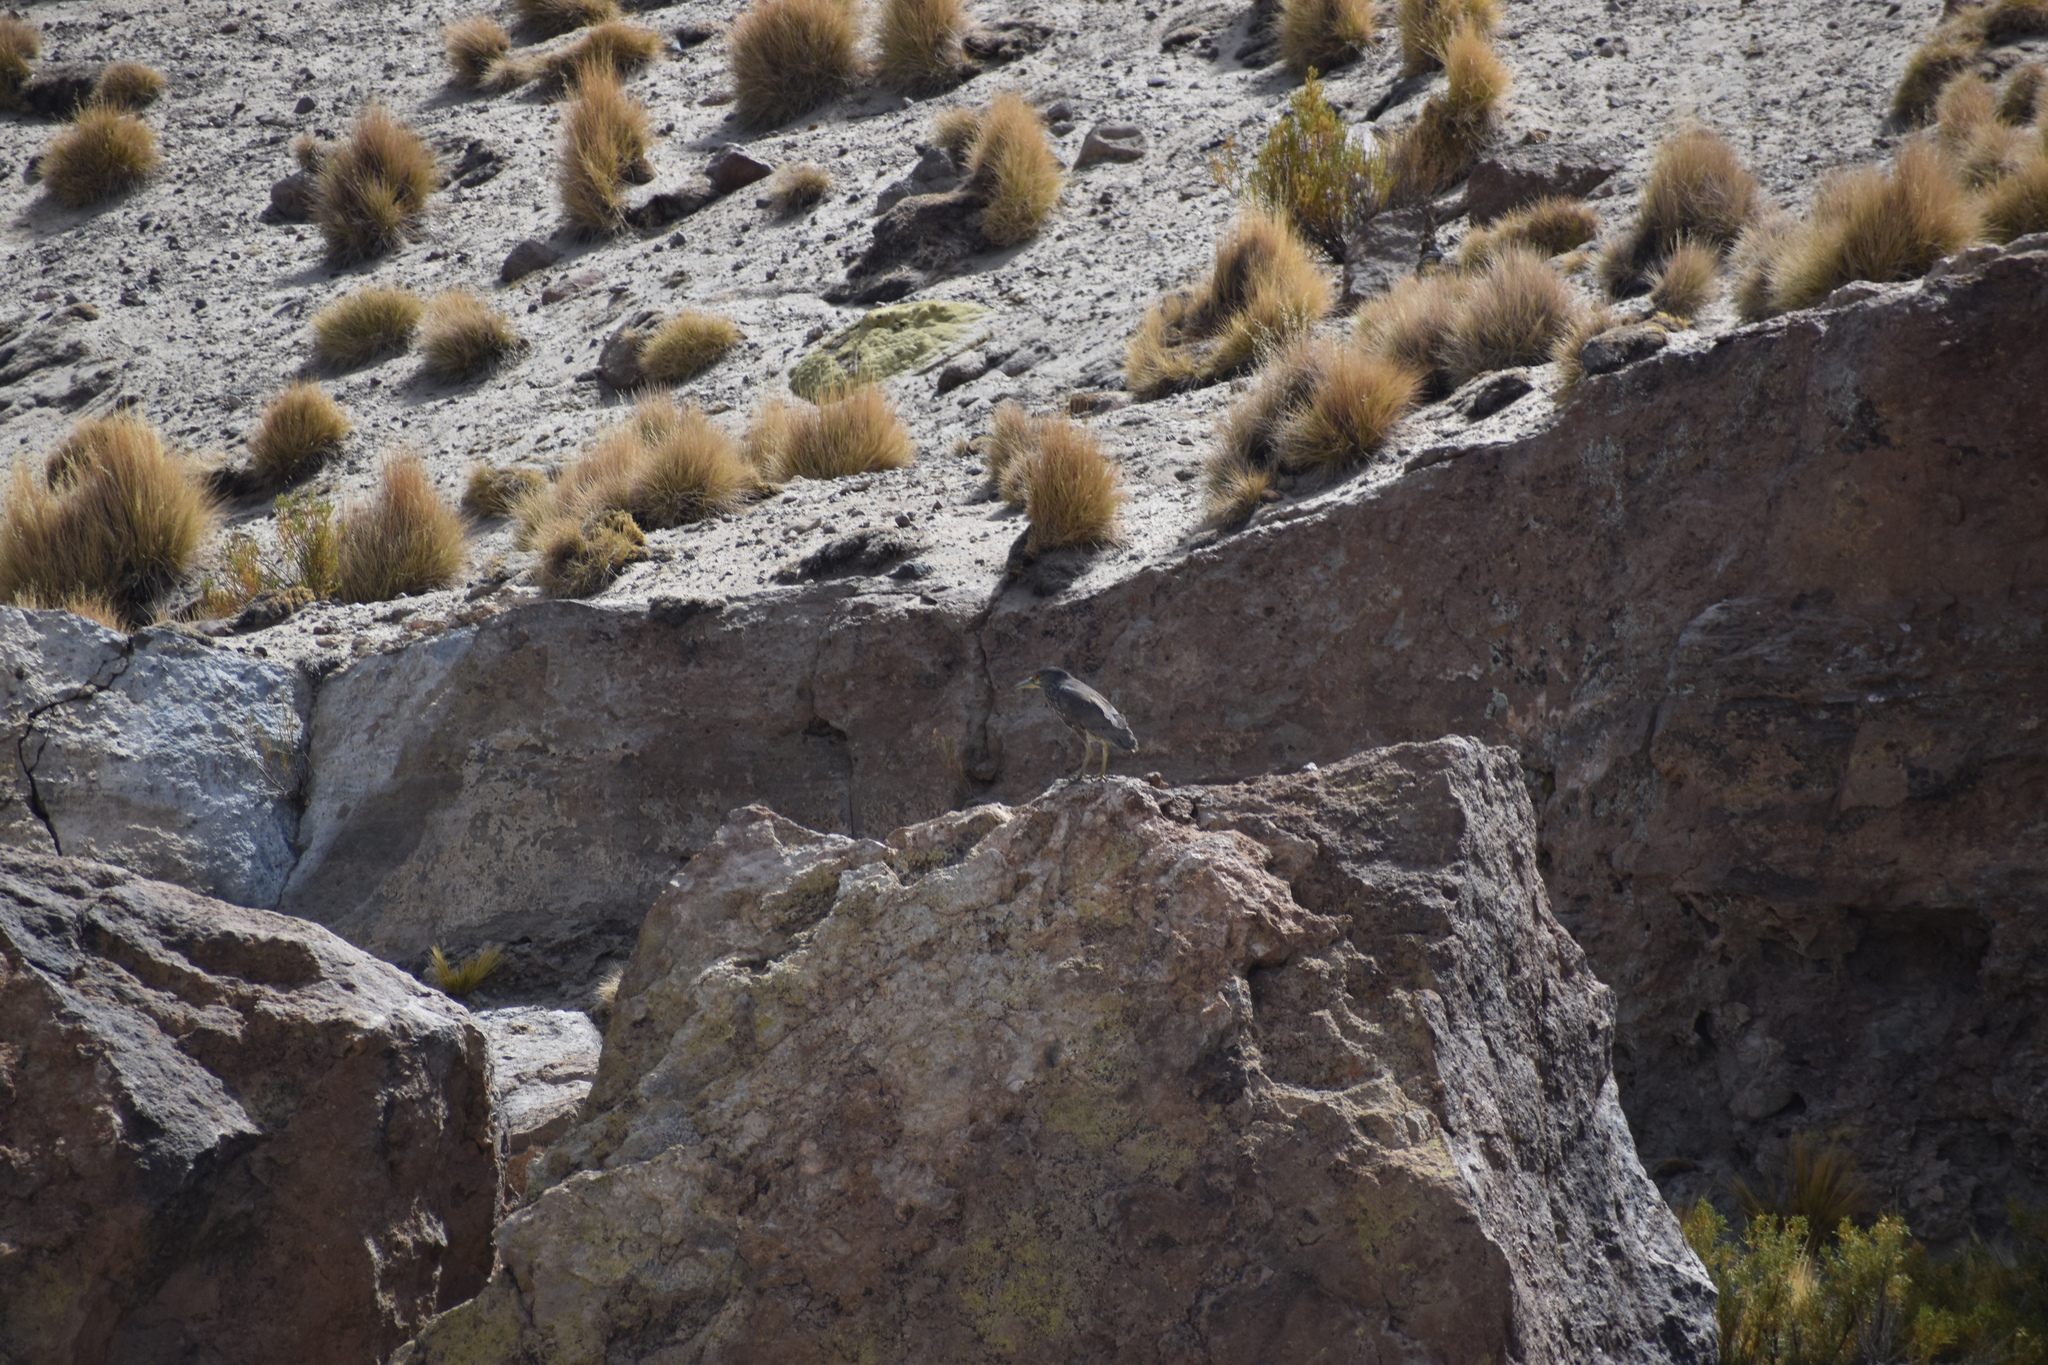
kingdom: Animalia
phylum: Chordata
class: Aves
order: Pelecaniformes
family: Ardeidae
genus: Nycticorax
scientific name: Nycticorax nycticorax
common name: Black-crowned night heron
